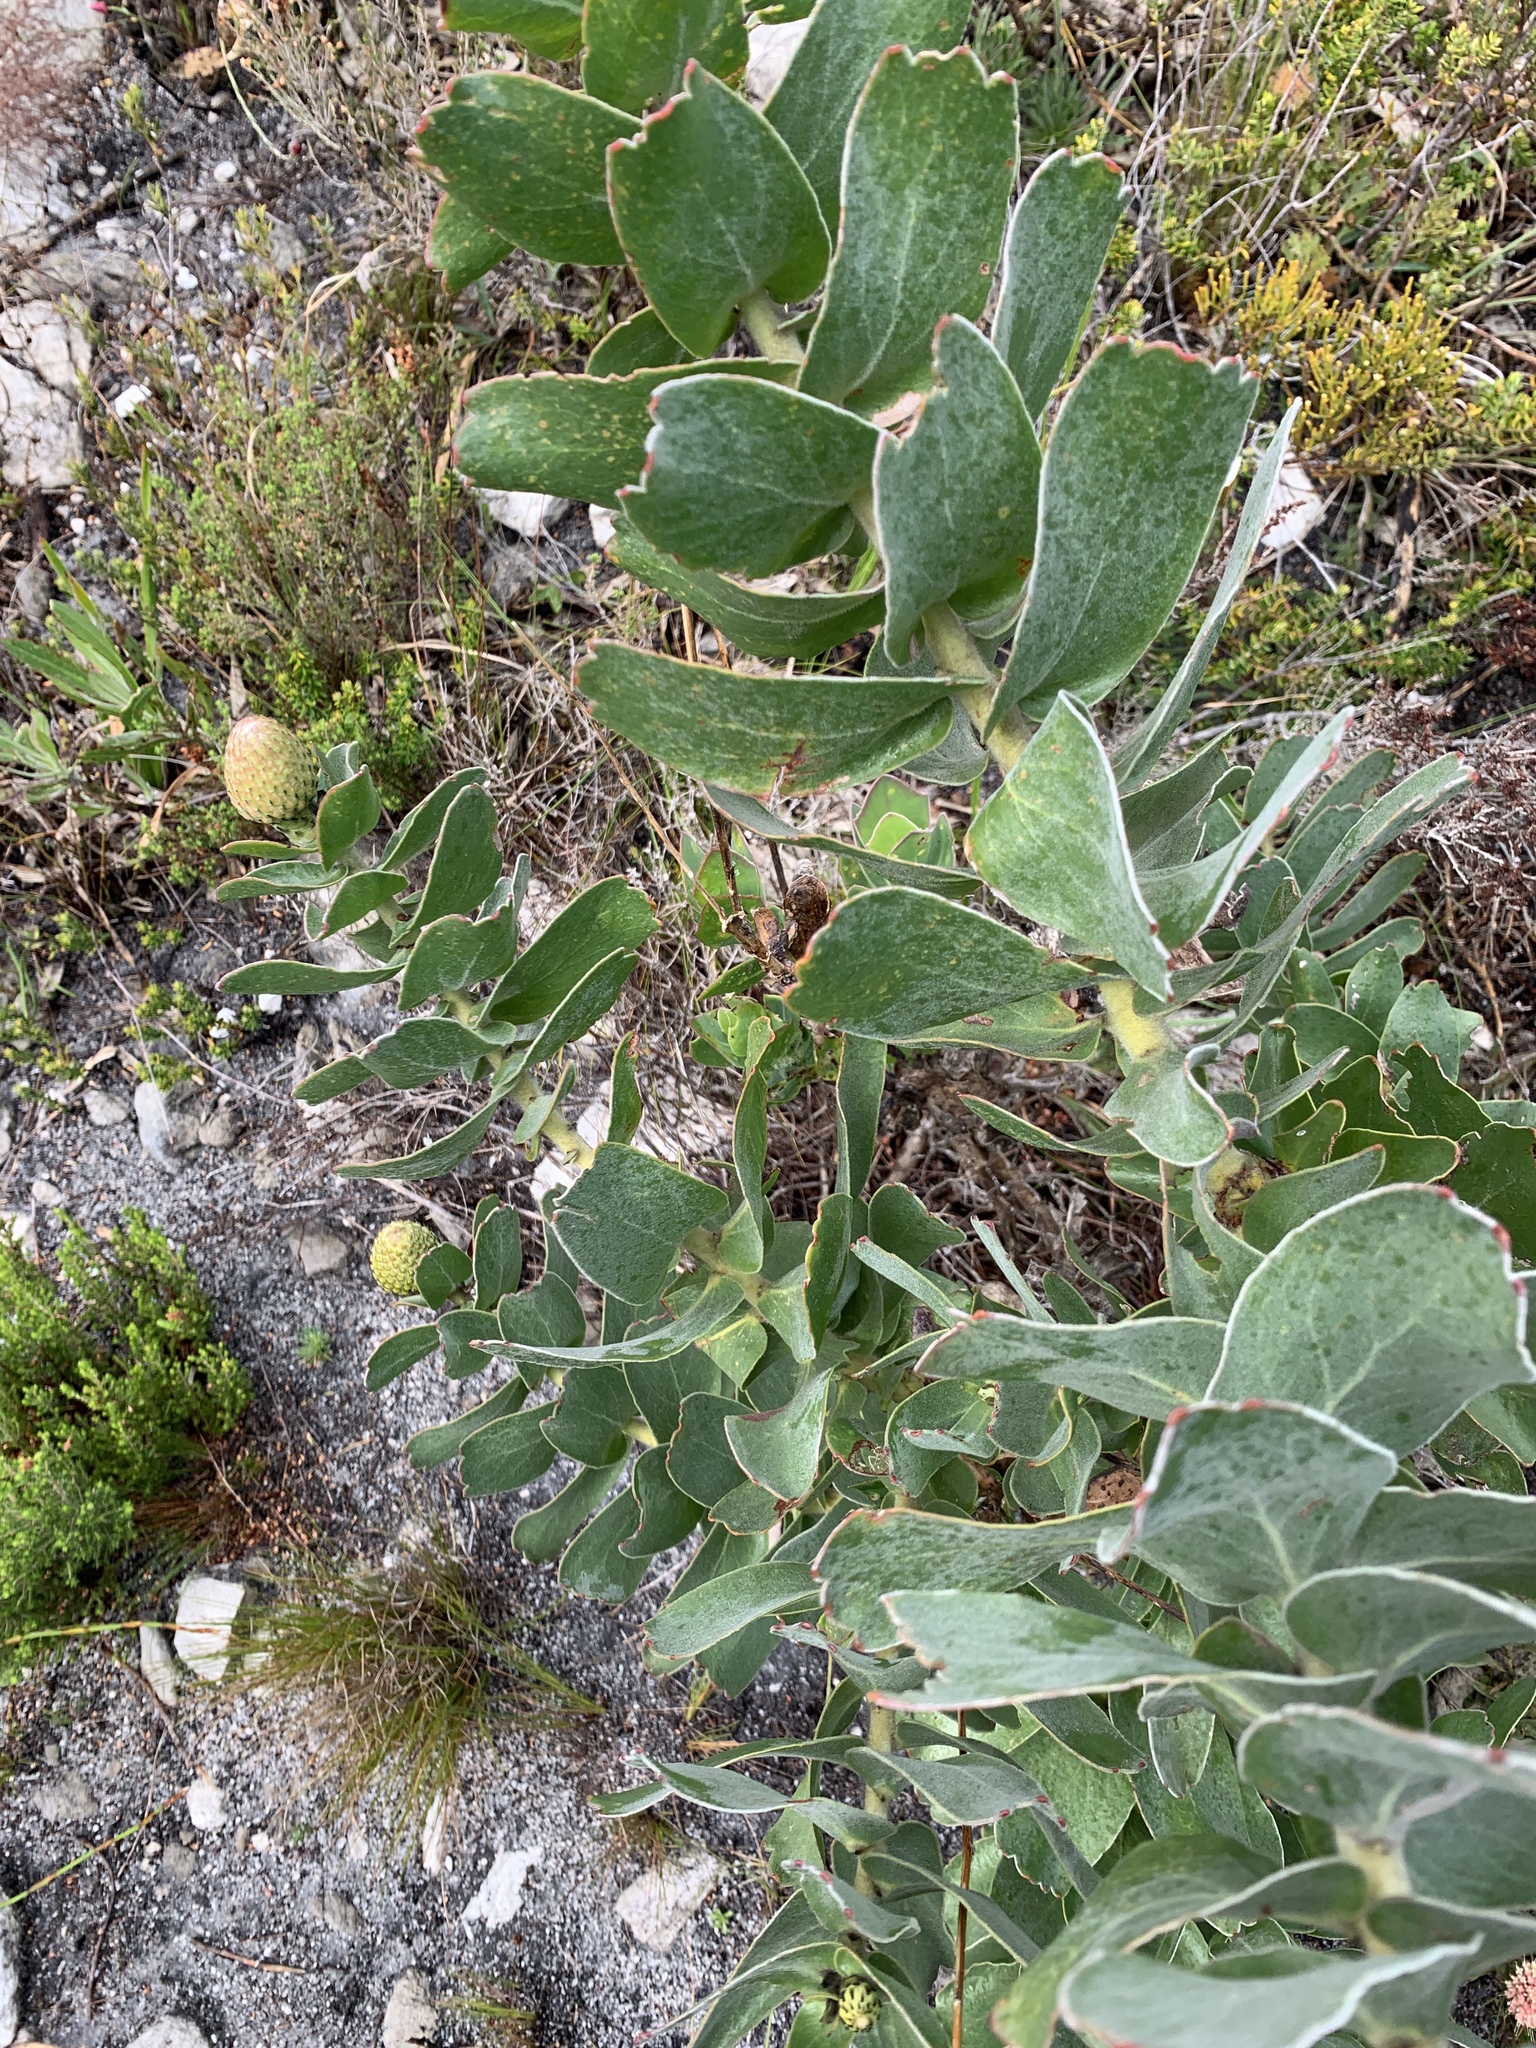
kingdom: Plantae
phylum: Tracheophyta
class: Magnoliopsida
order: Proteales
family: Proteaceae
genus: Leucospermum
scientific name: Leucospermum cordifolium
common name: Red pincushion-protea
